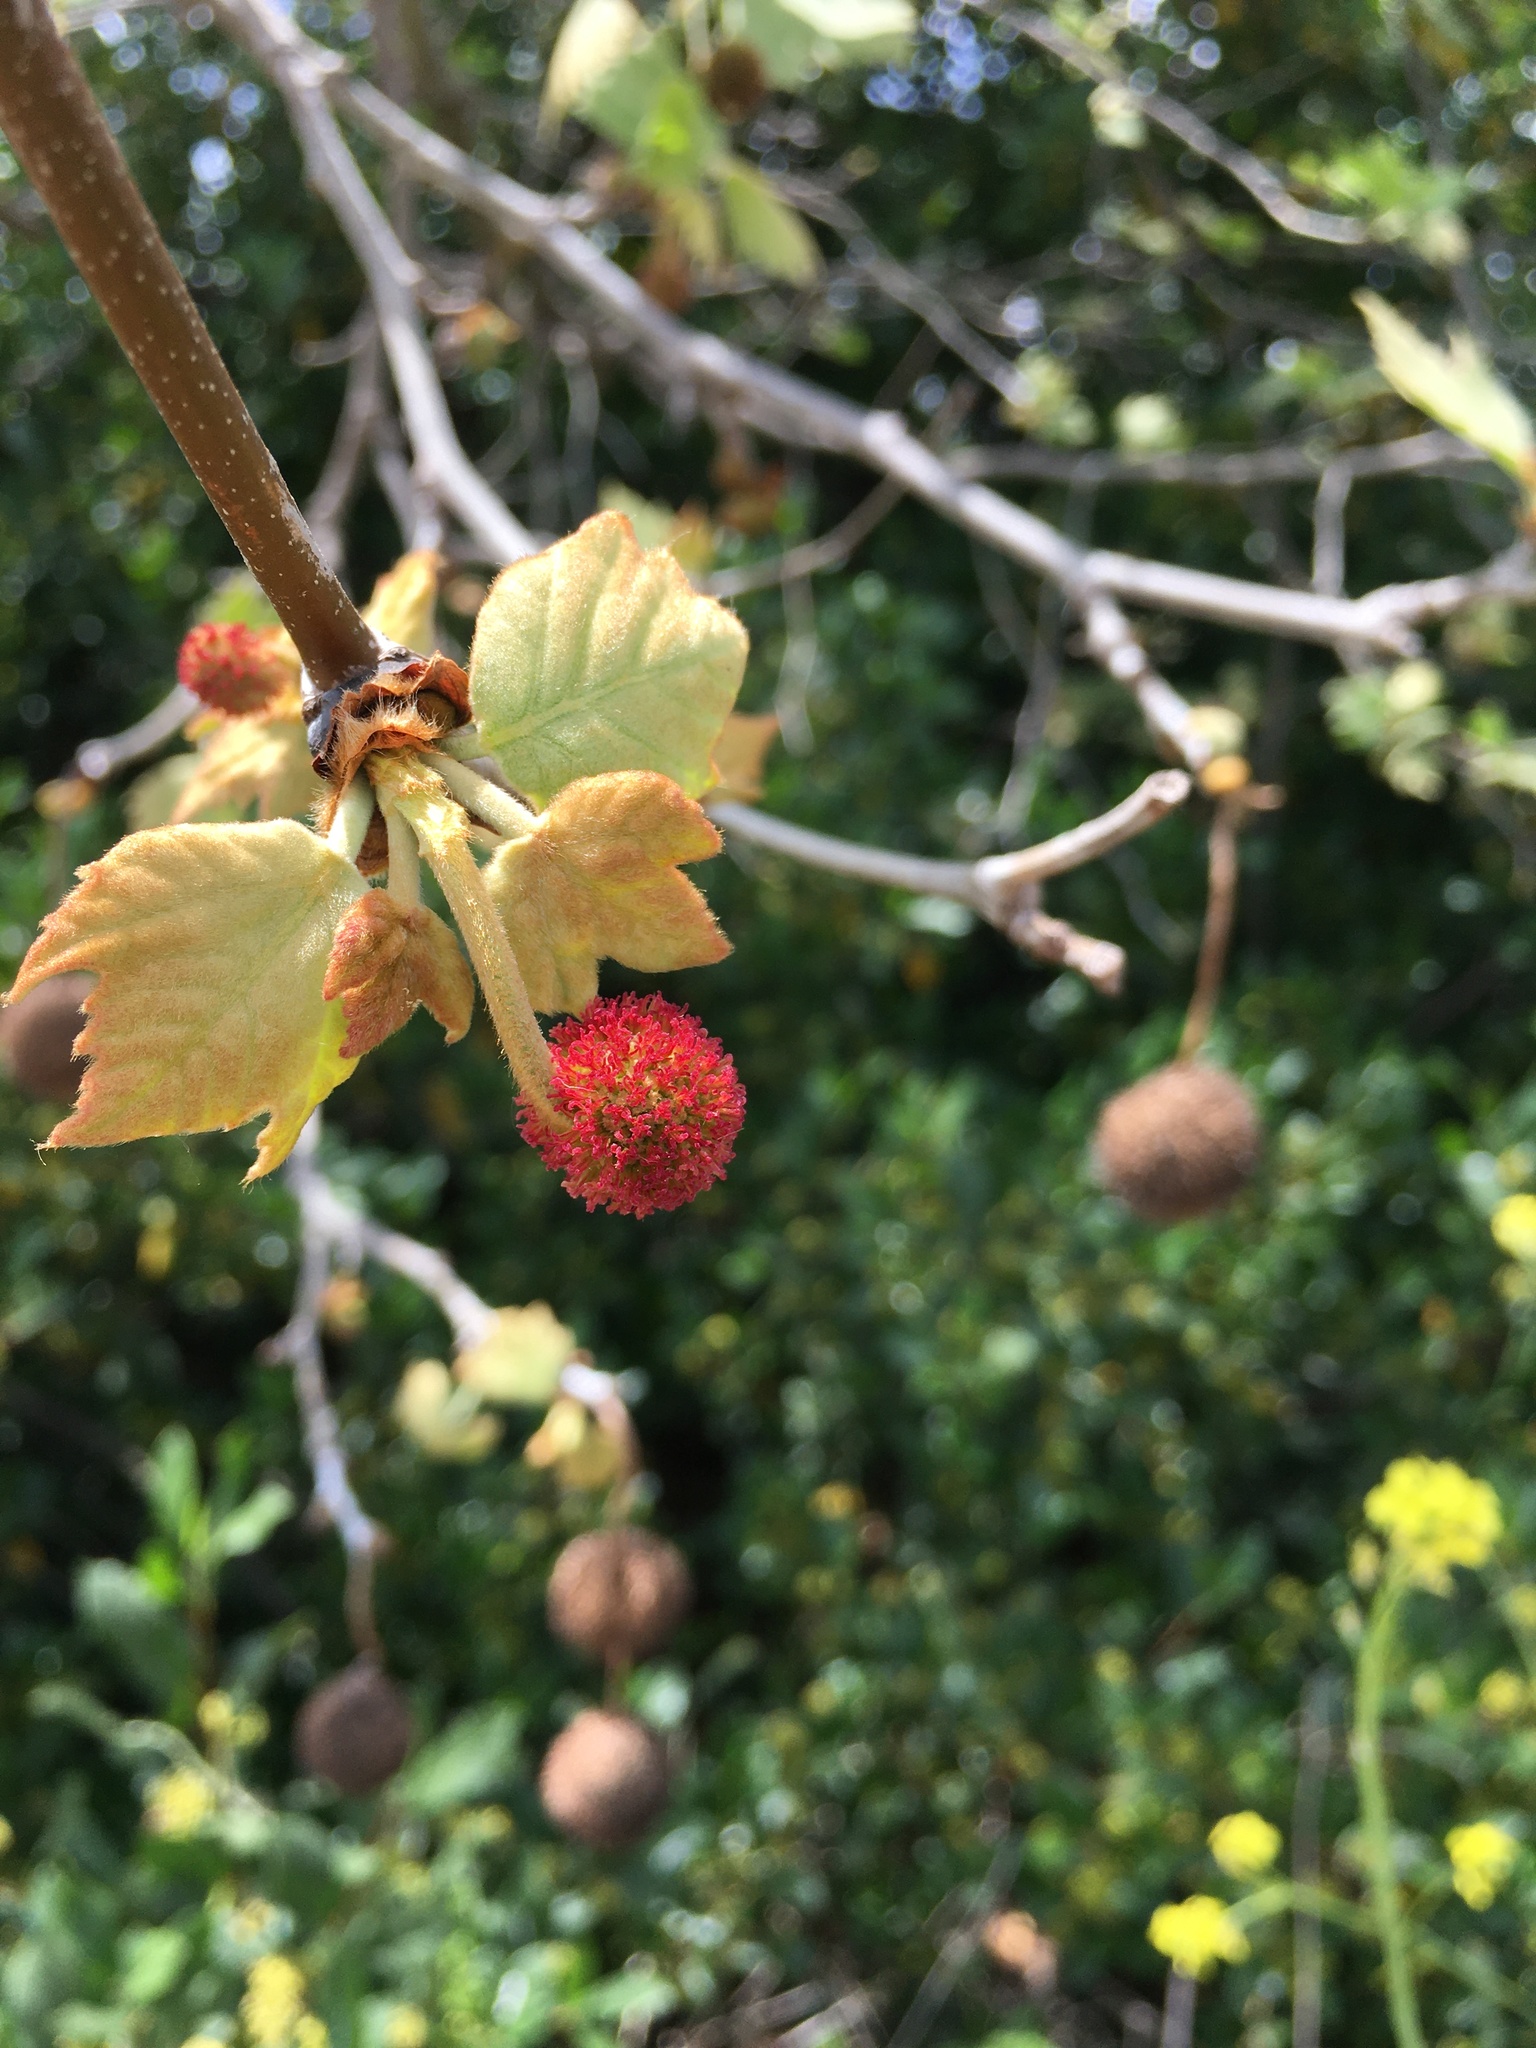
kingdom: Plantae
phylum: Tracheophyta
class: Magnoliopsida
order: Proteales
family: Platanaceae
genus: Platanus
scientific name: Platanus racemosa
